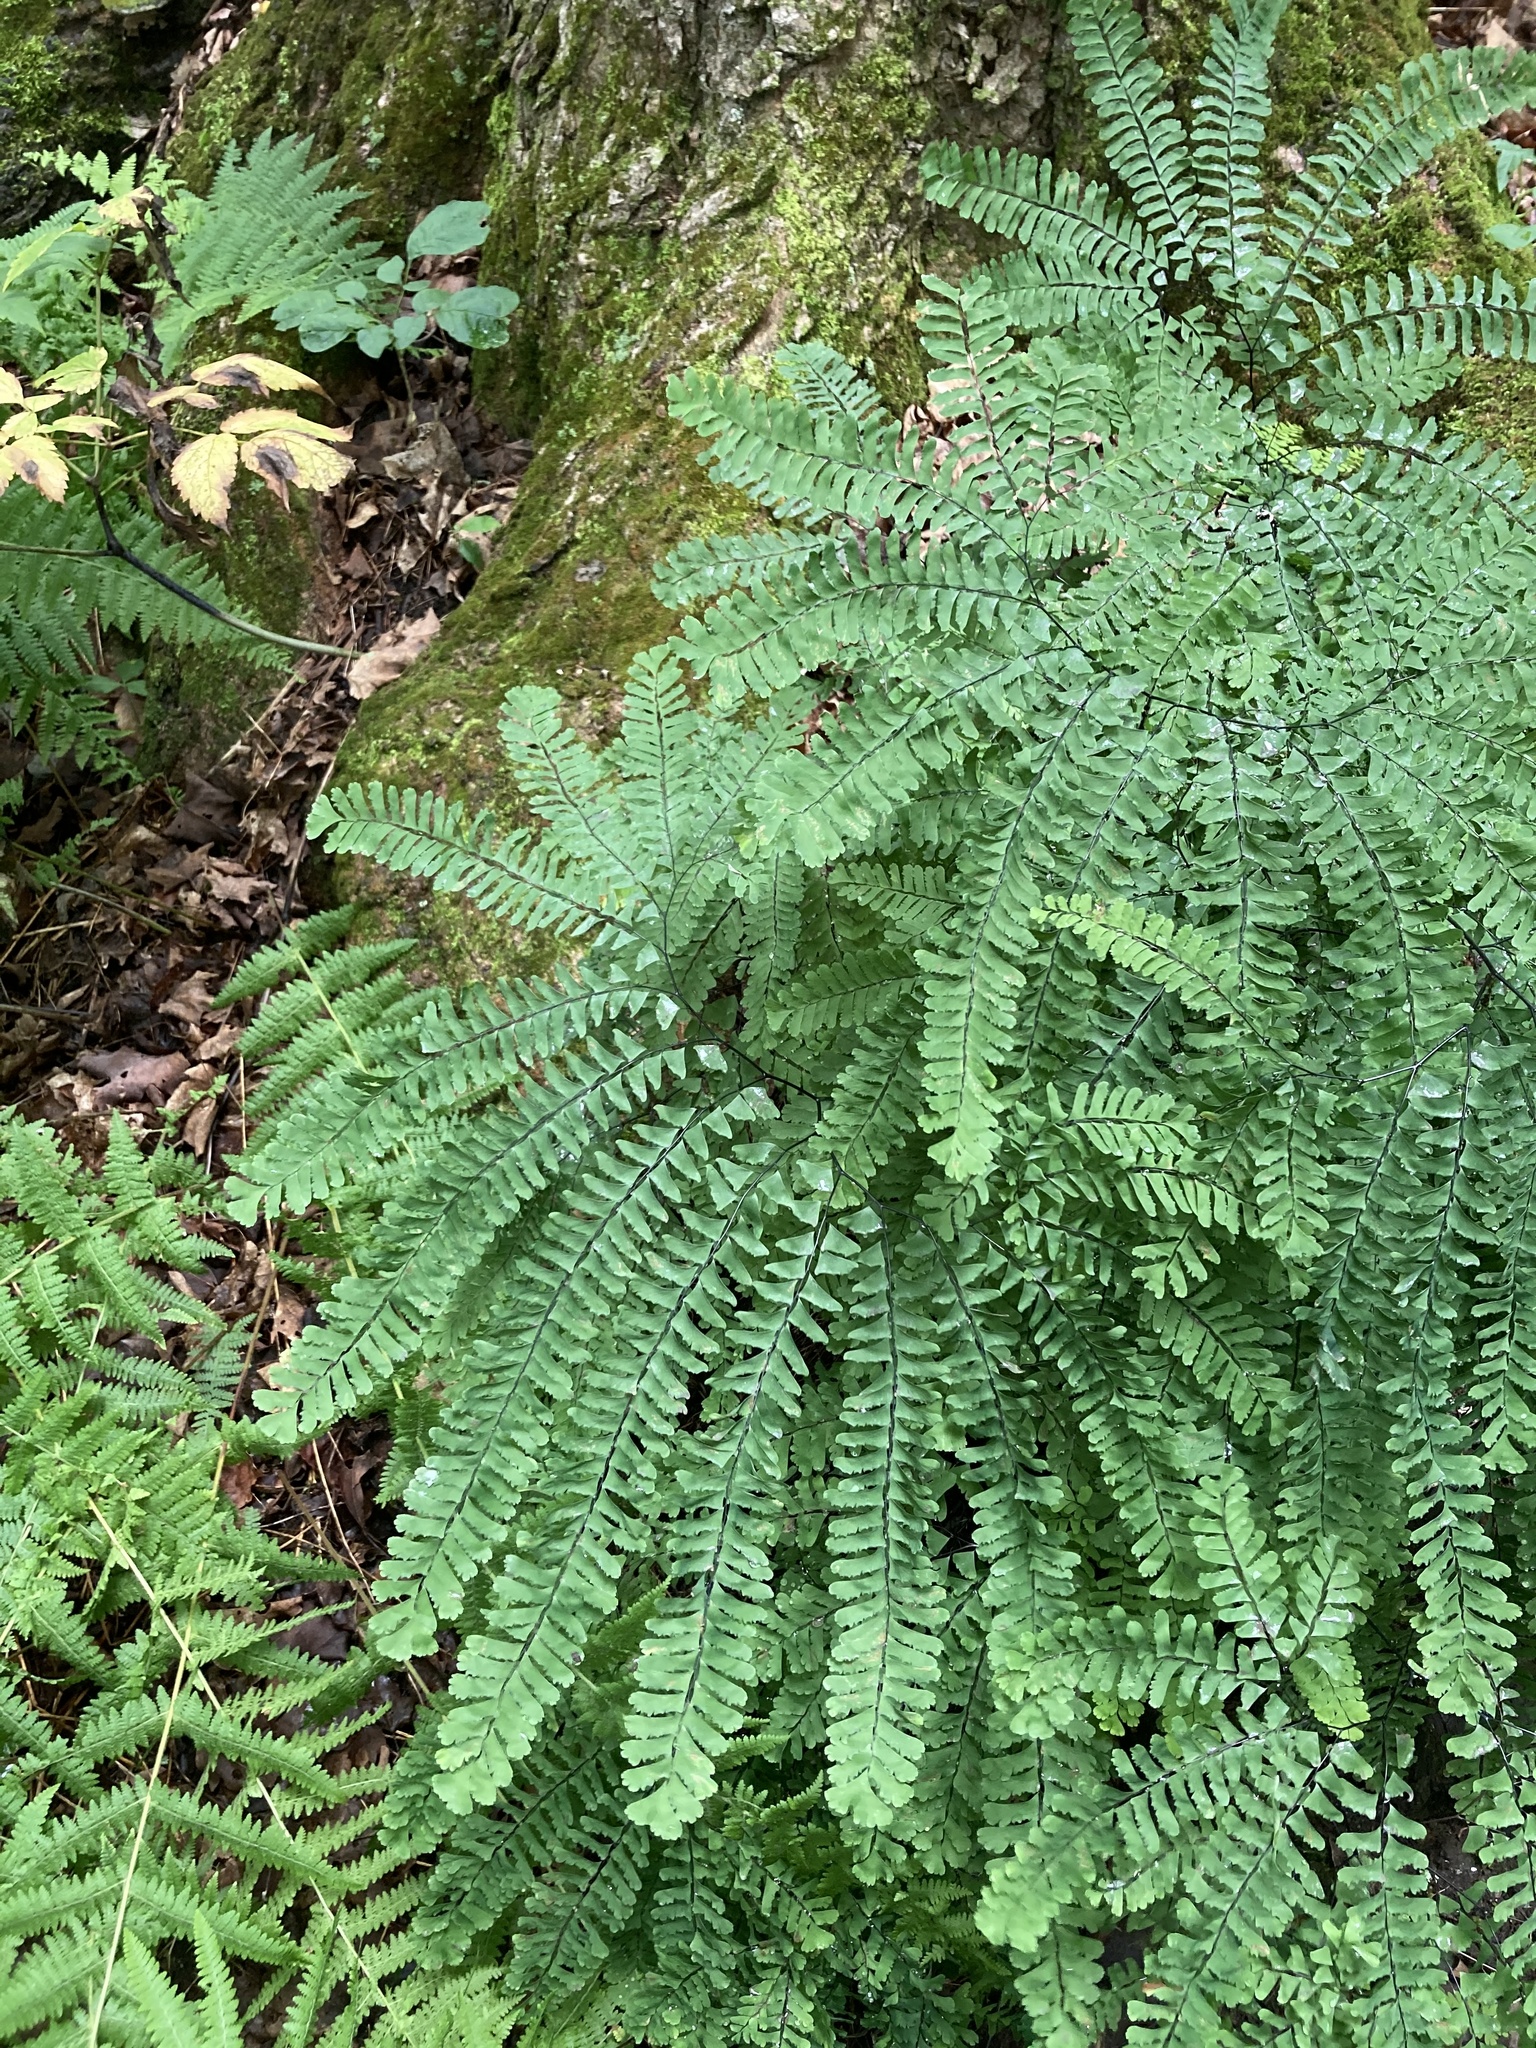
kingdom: Plantae
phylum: Tracheophyta
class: Polypodiopsida
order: Polypodiales
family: Pteridaceae
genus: Adiantum
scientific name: Adiantum pedatum
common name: Five-finger fern
